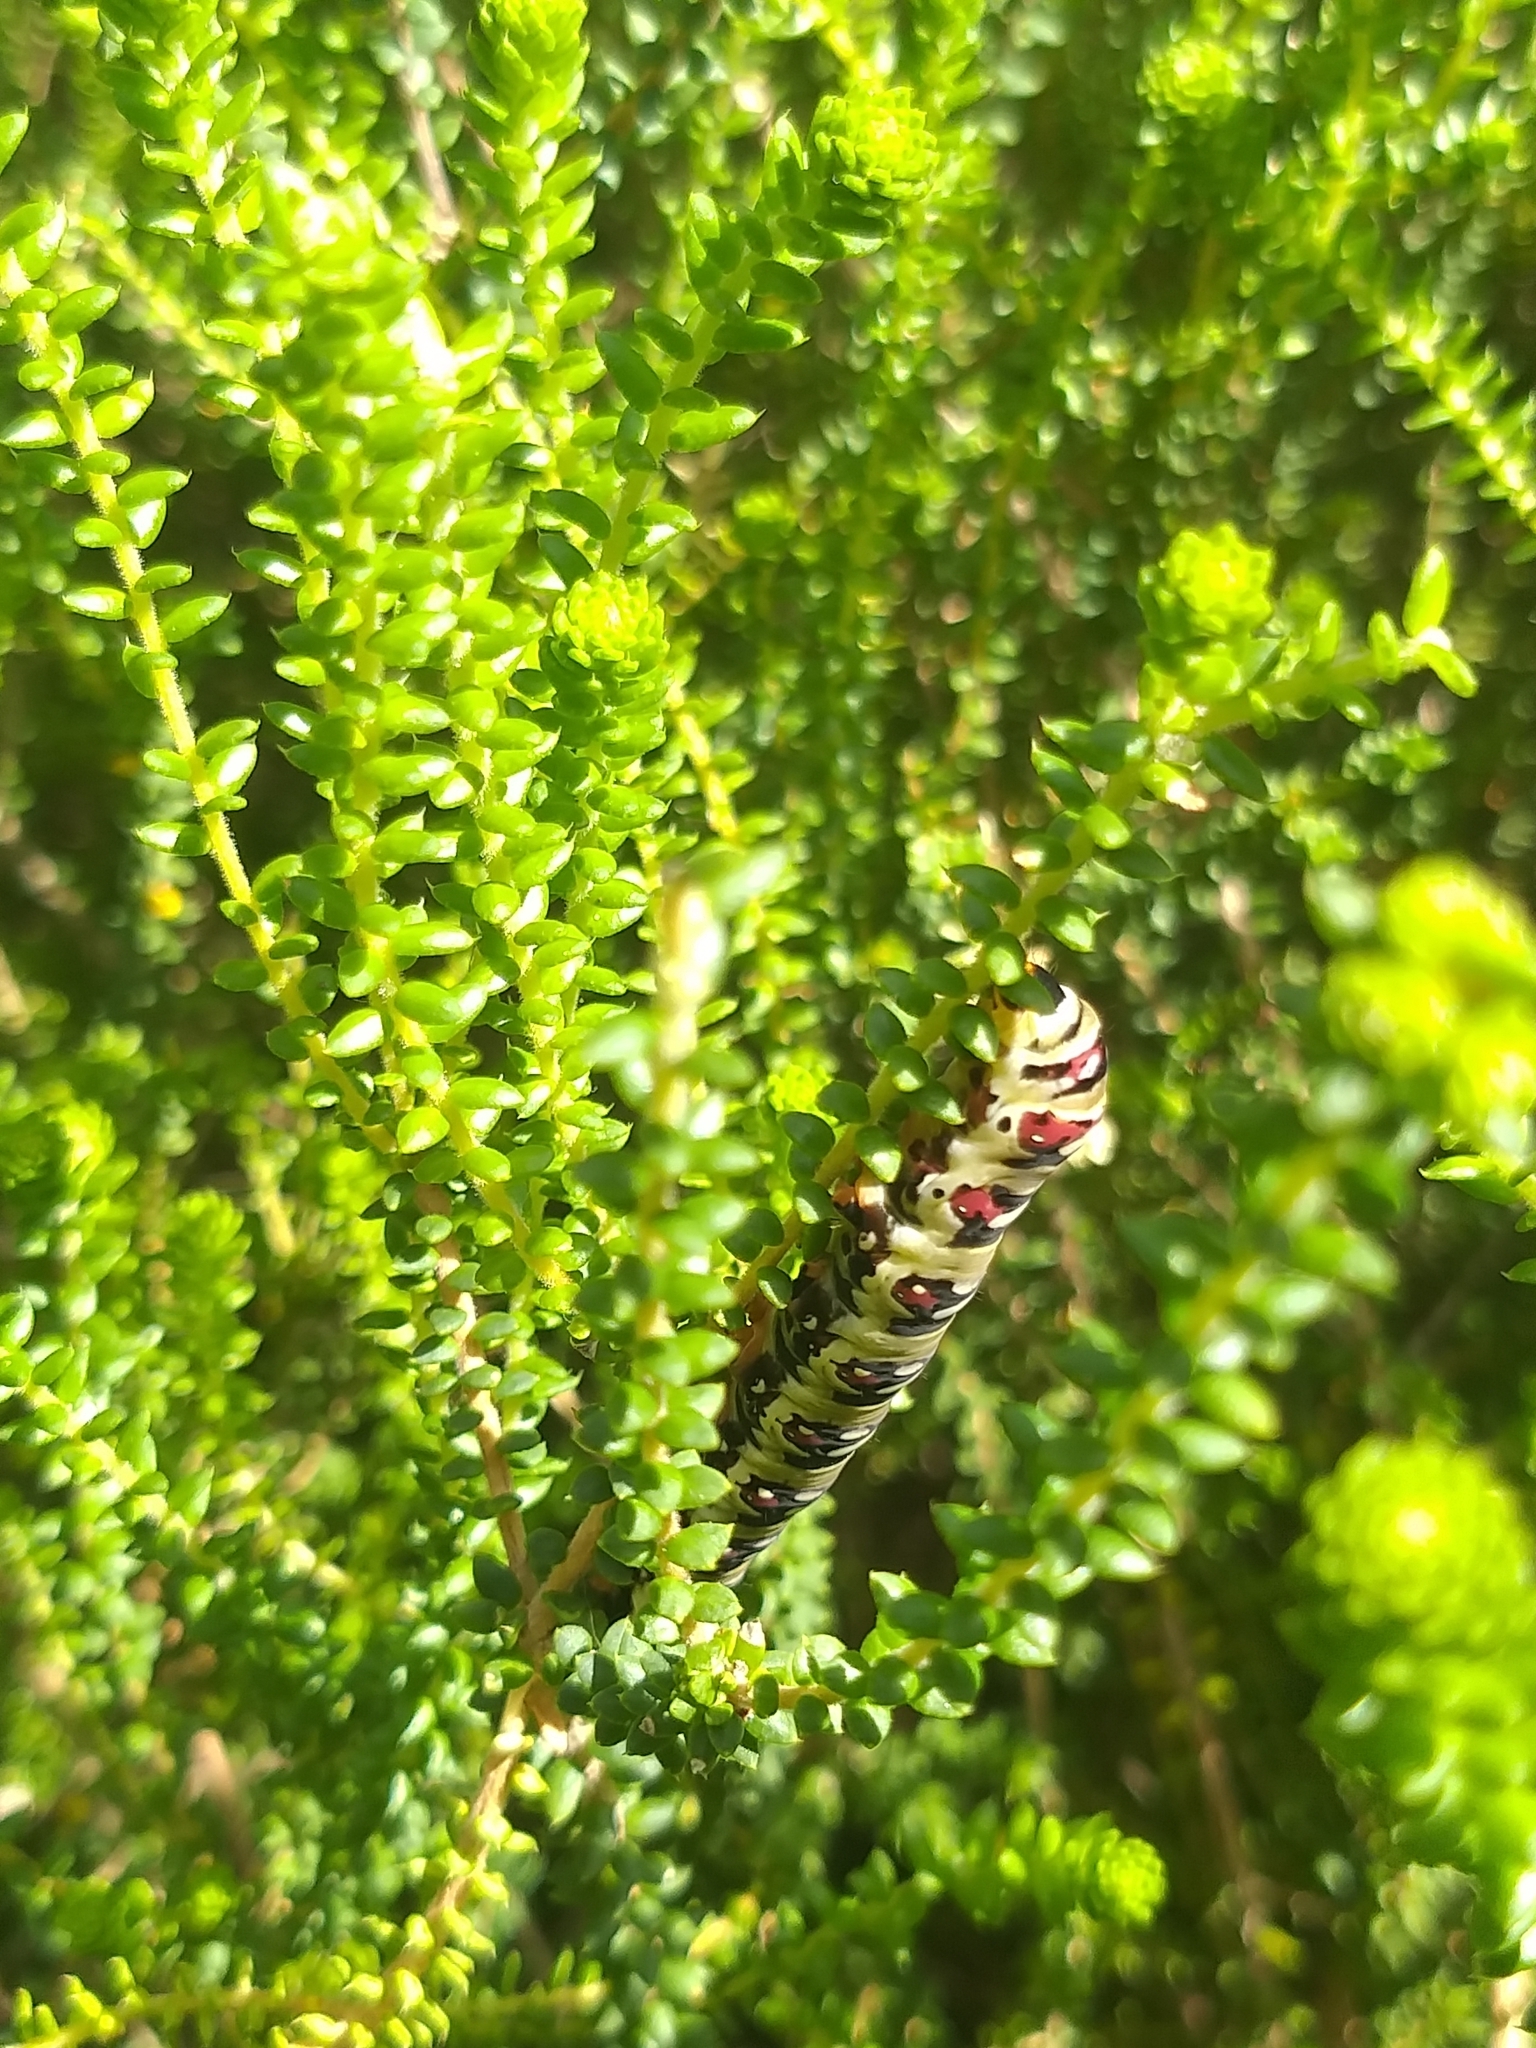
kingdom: Animalia
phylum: Arthropoda
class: Insecta
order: Lepidoptera
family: Noctuidae
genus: Klugeana
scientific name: Klugeana philoxalis
